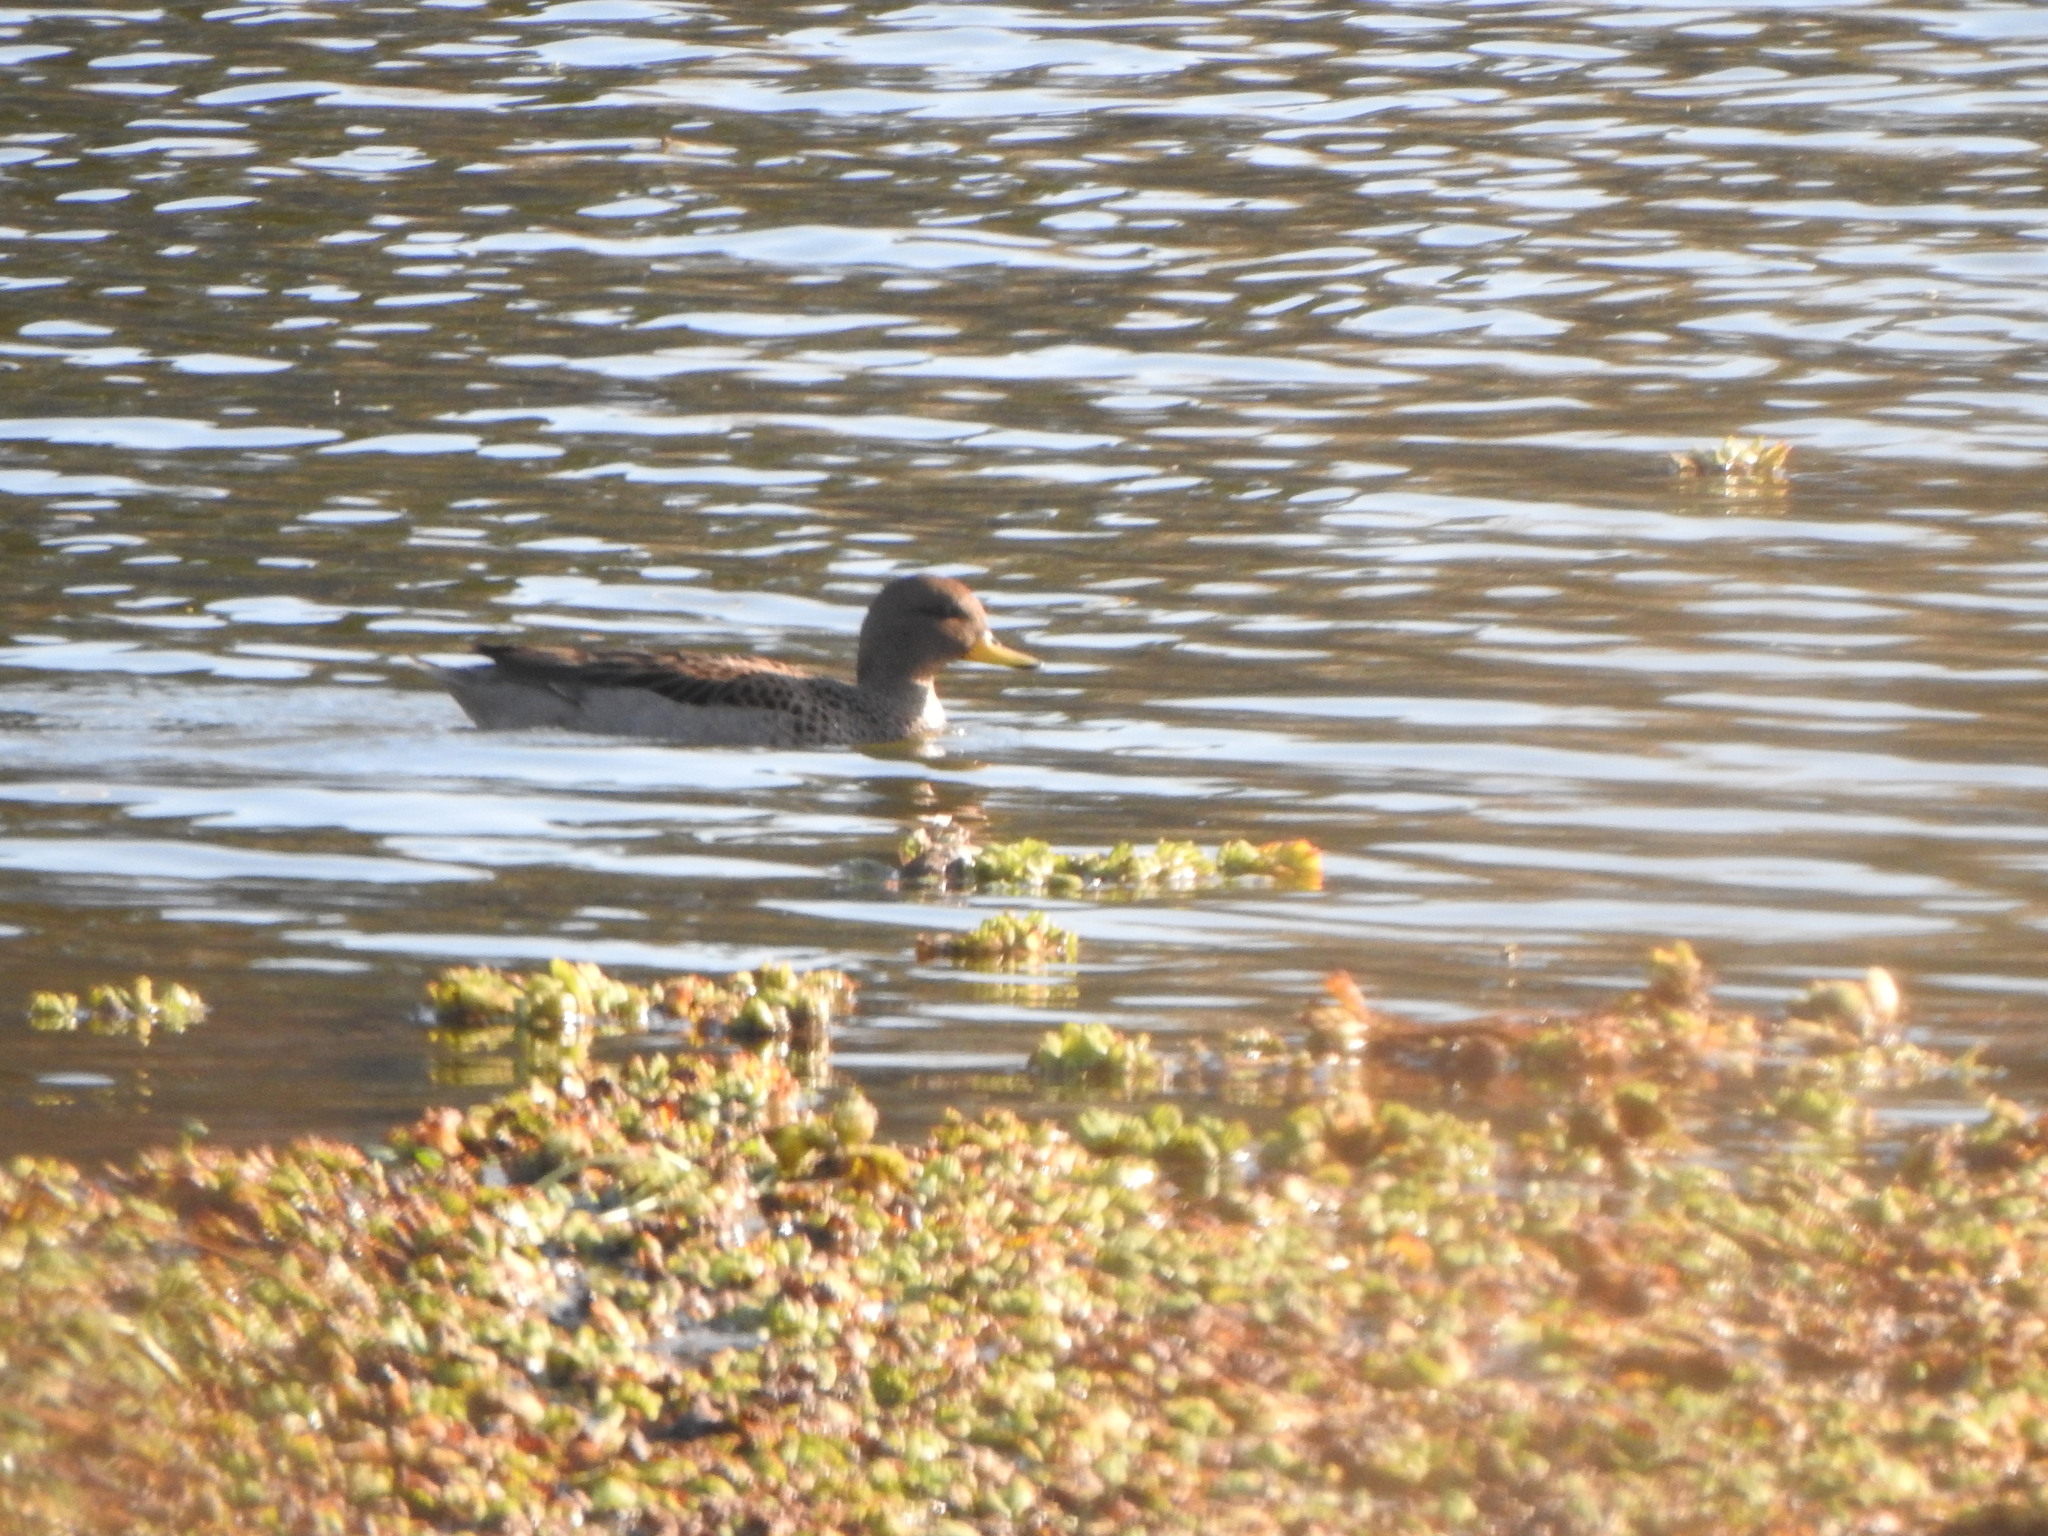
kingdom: Animalia
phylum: Chordata
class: Aves
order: Anseriformes
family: Anatidae
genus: Anas
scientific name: Anas flavirostris
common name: Yellow-billed teal
